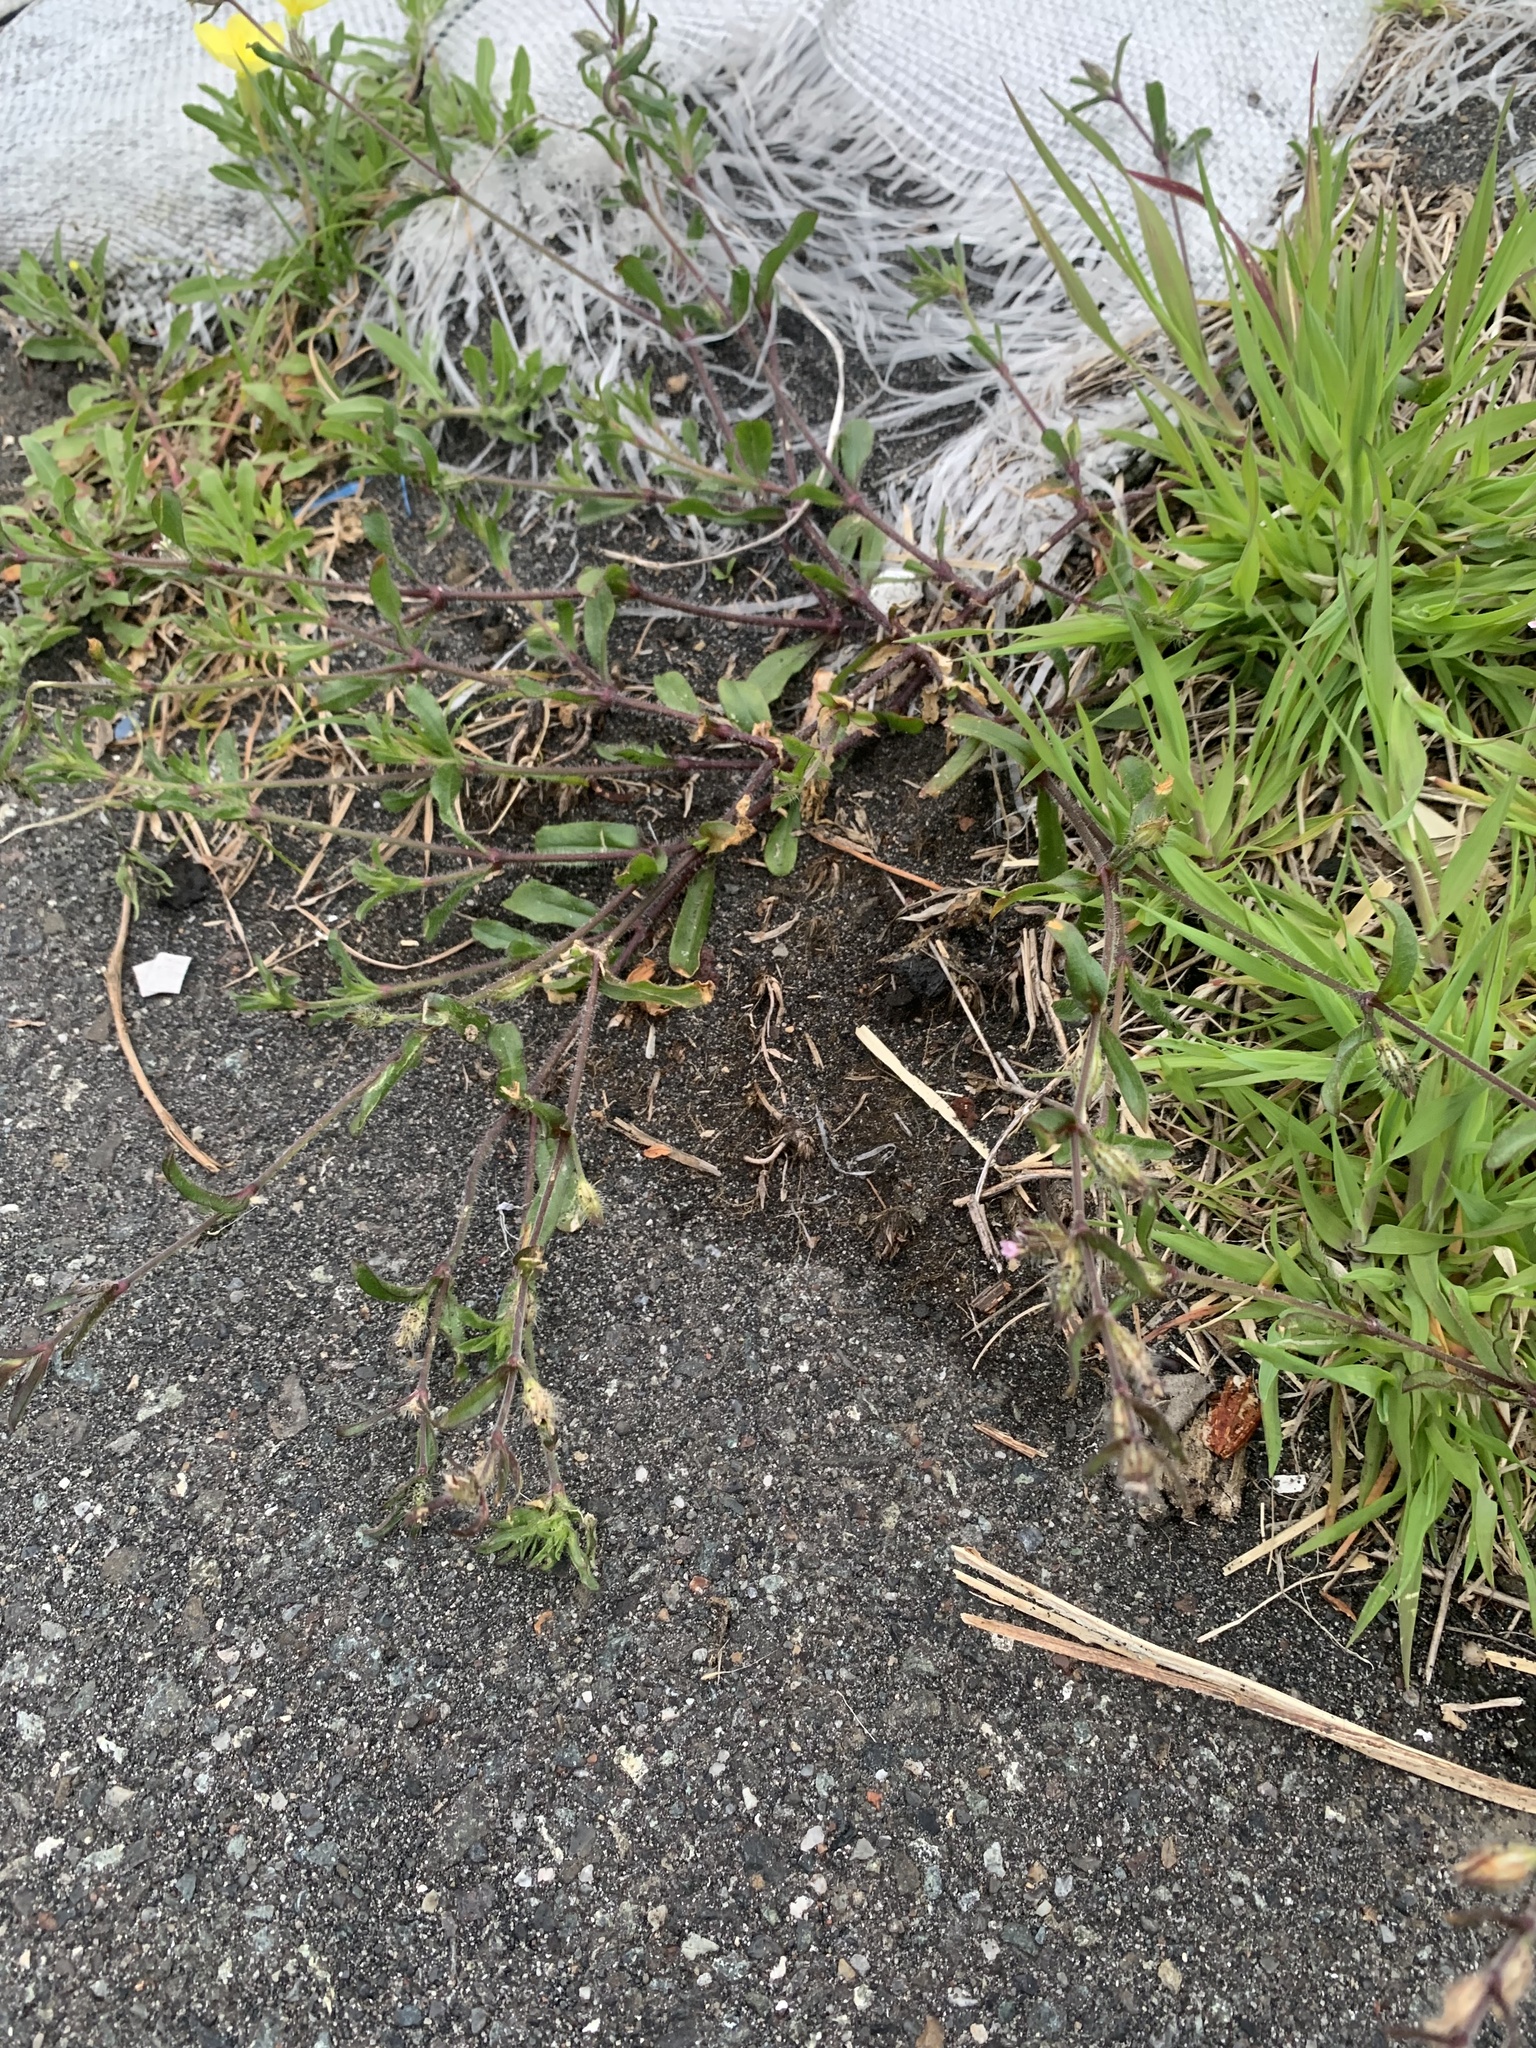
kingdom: Plantae
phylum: Tracheophyta
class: Magnoliopsida
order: Caryophyllales
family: Caryophyllaceae
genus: Silene
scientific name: Silene gallica
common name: Small-flowered catchfly
